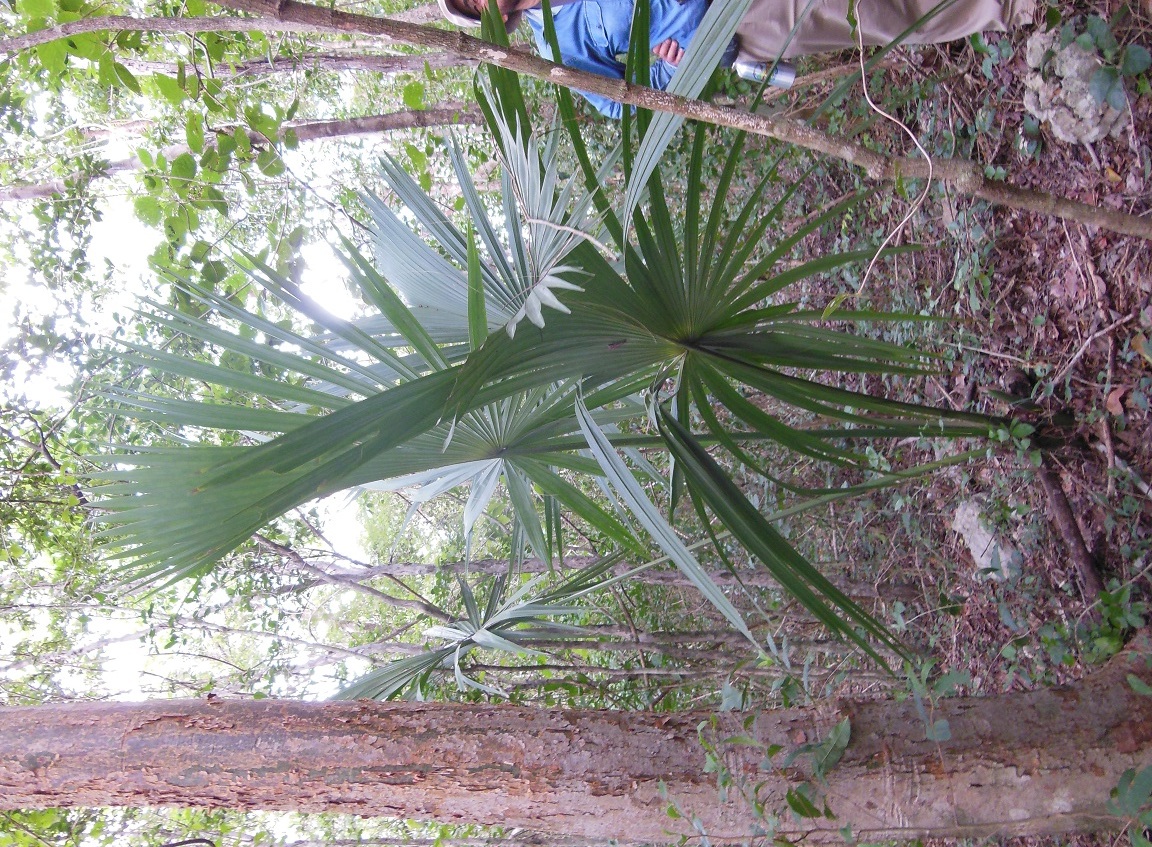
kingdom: Plantae
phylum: Tracheophyta
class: Liliopsida
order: Arecales
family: Arecaceae
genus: Sabal
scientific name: Sabal yapa
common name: Thatch palm
